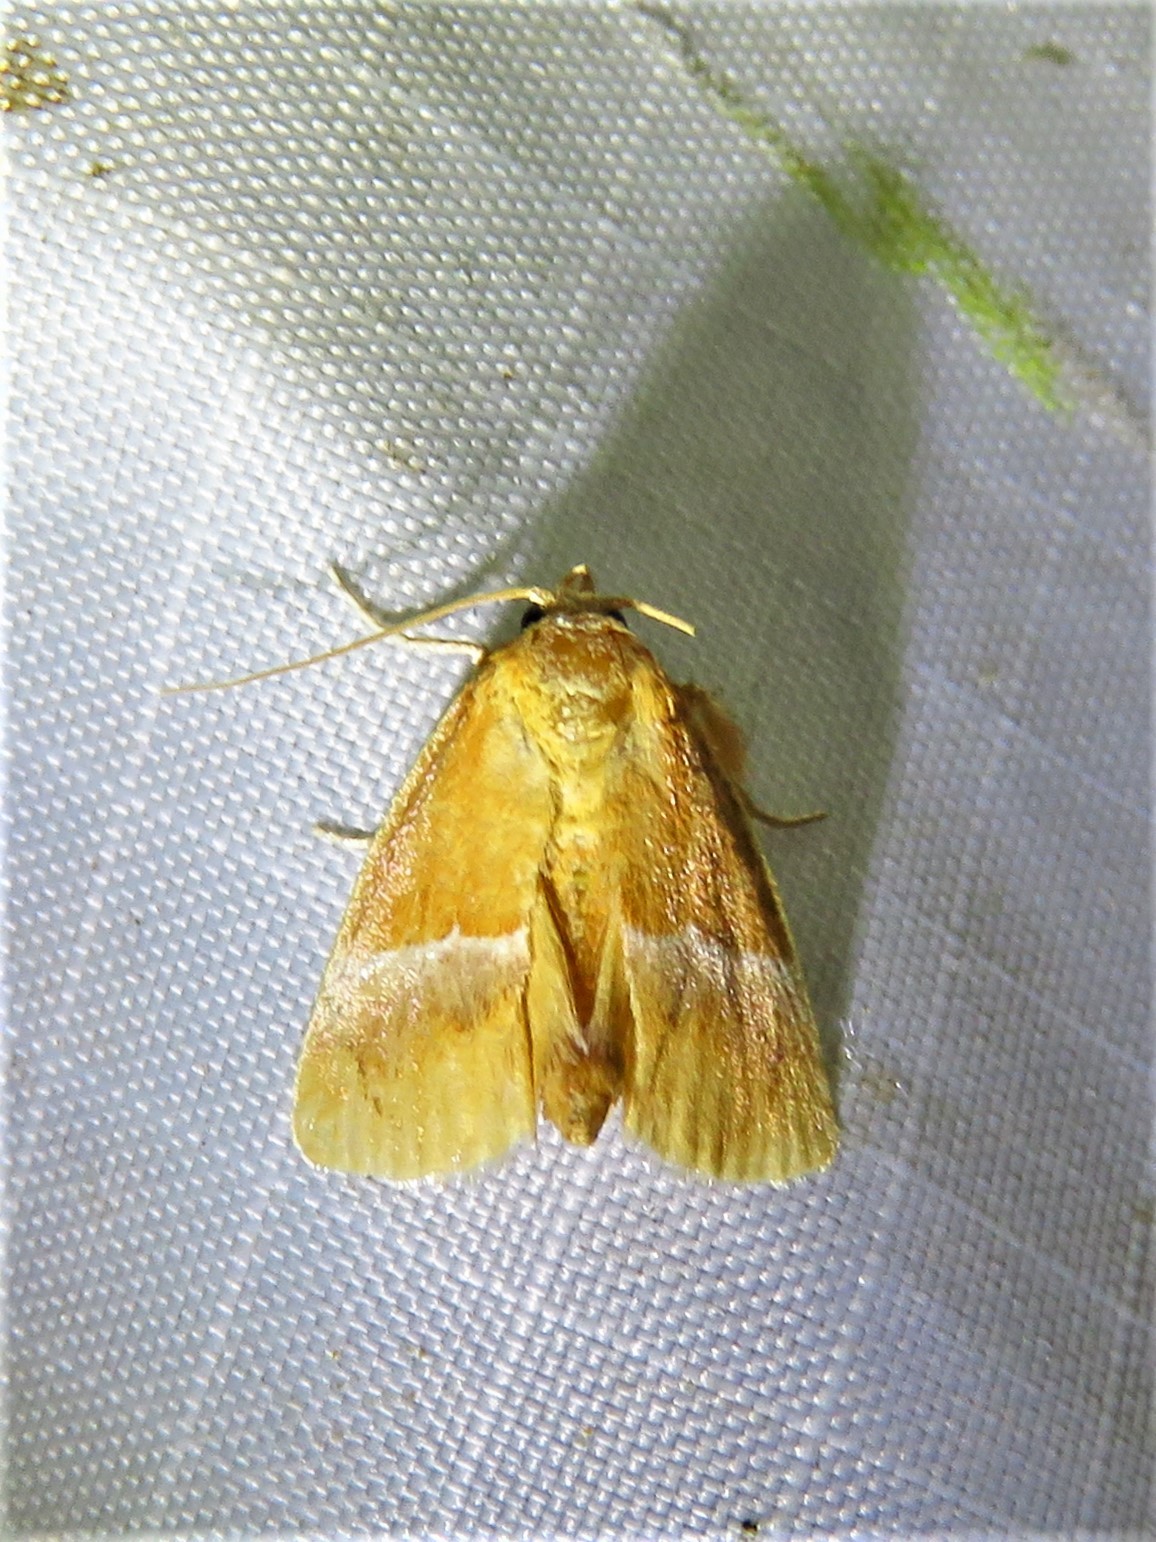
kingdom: Animalia
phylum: Arthropoda
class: Insecta
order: Lepidoptera
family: Limacodidae
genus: Lithacodes
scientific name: Lithacodes fasciola
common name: Yellow-shouldered slug moth
